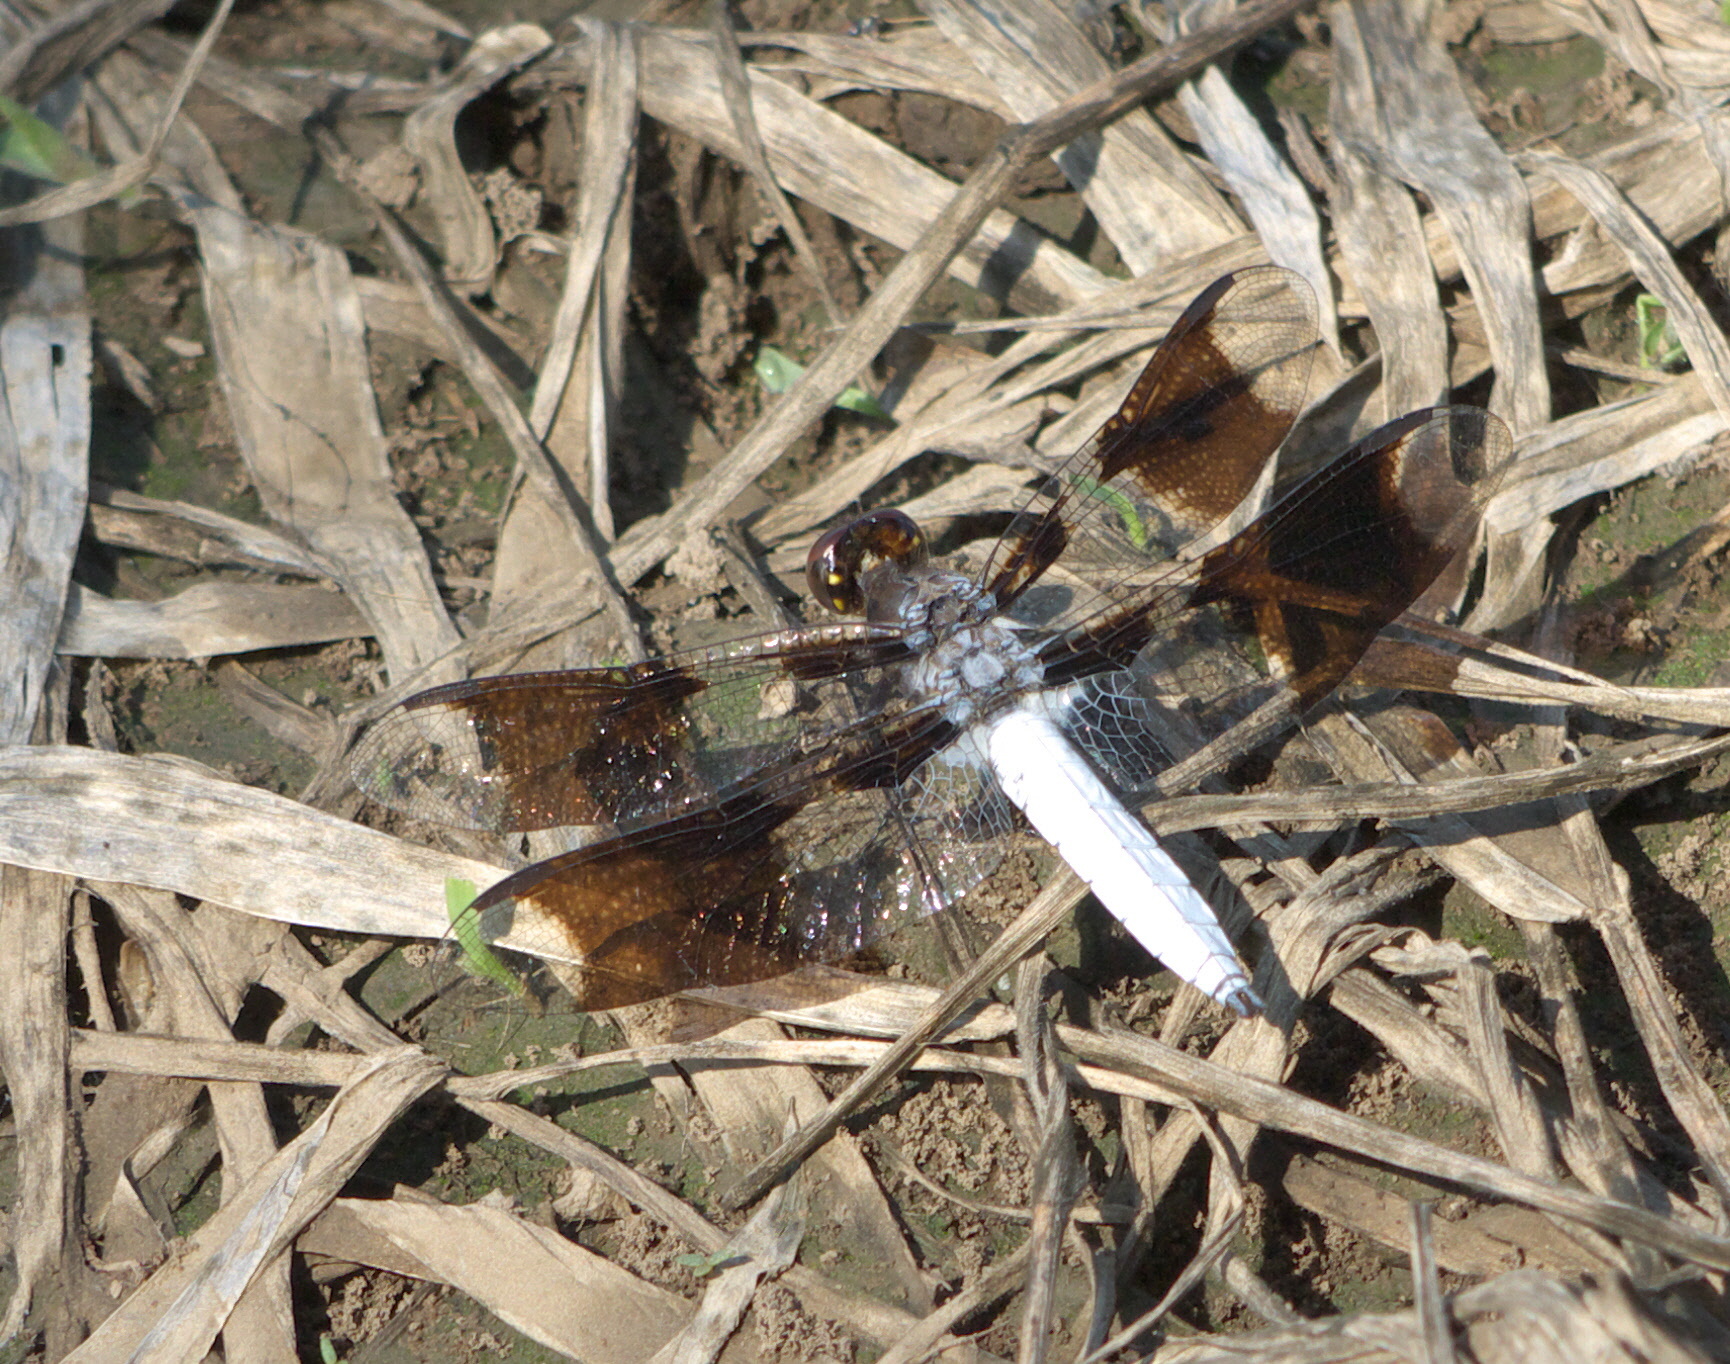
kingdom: Animalia
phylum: Arthropoda
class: Insecta
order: Odonata
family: Libellulidae
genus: Plathemis
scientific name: Plathemis lydia
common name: Common whitetail
